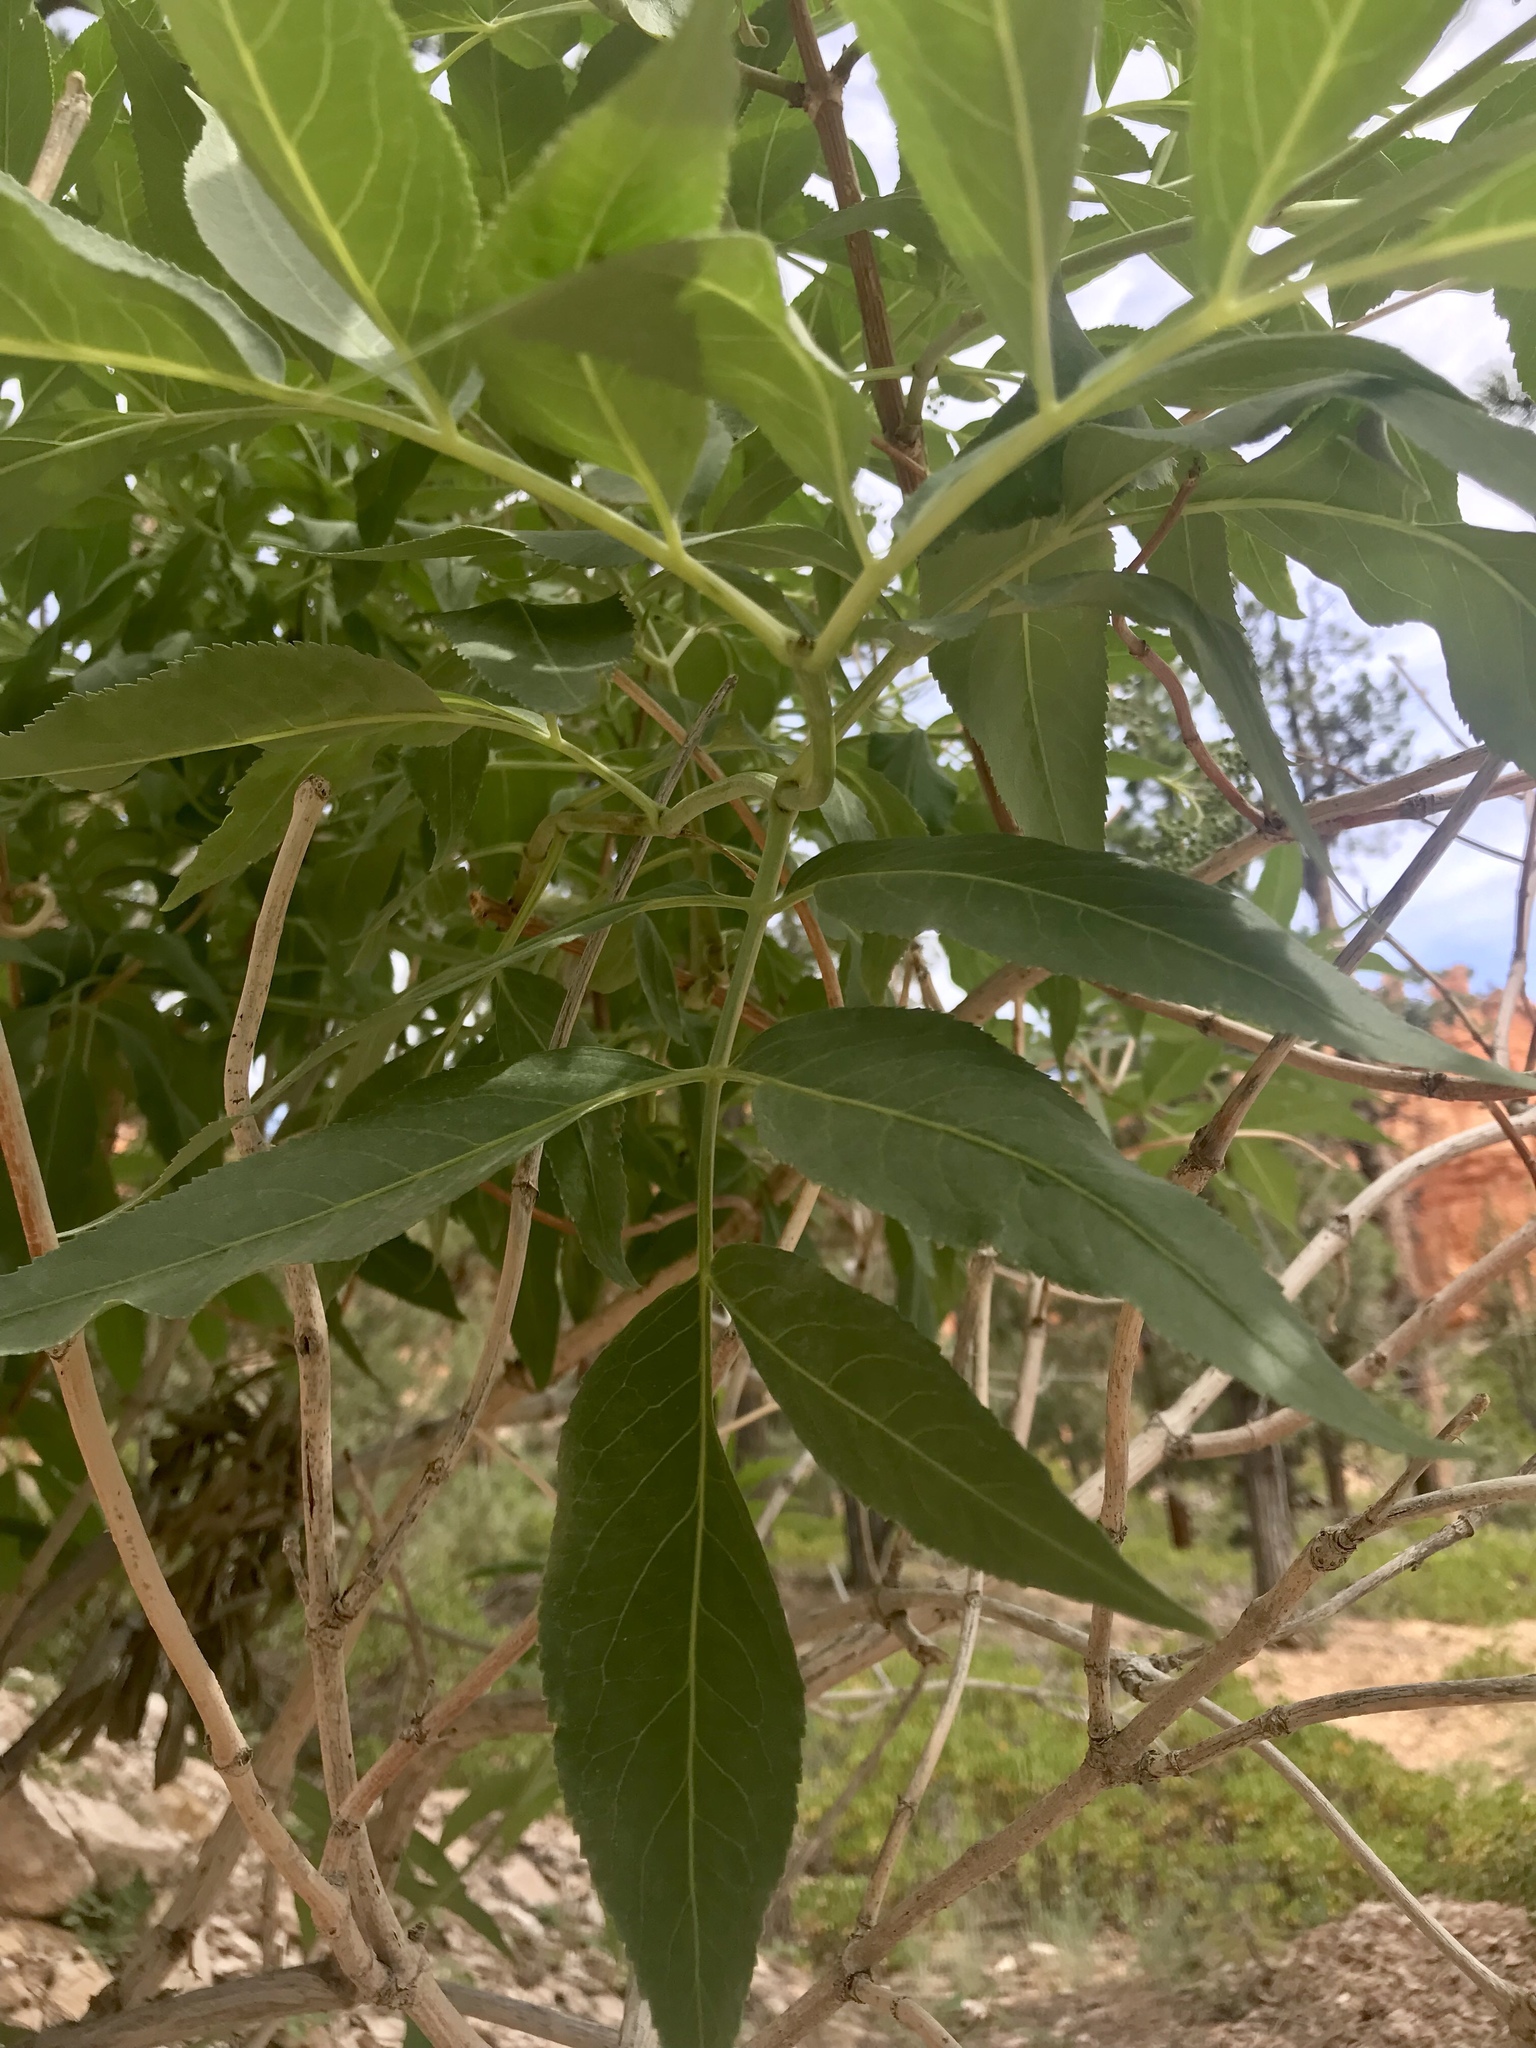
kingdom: Plantae
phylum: Tracheophyta
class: Magnoliopsida
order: Dipsacales
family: Viburnaceae
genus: Sambucus
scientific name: Sambucus cerulea
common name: Blue elder
